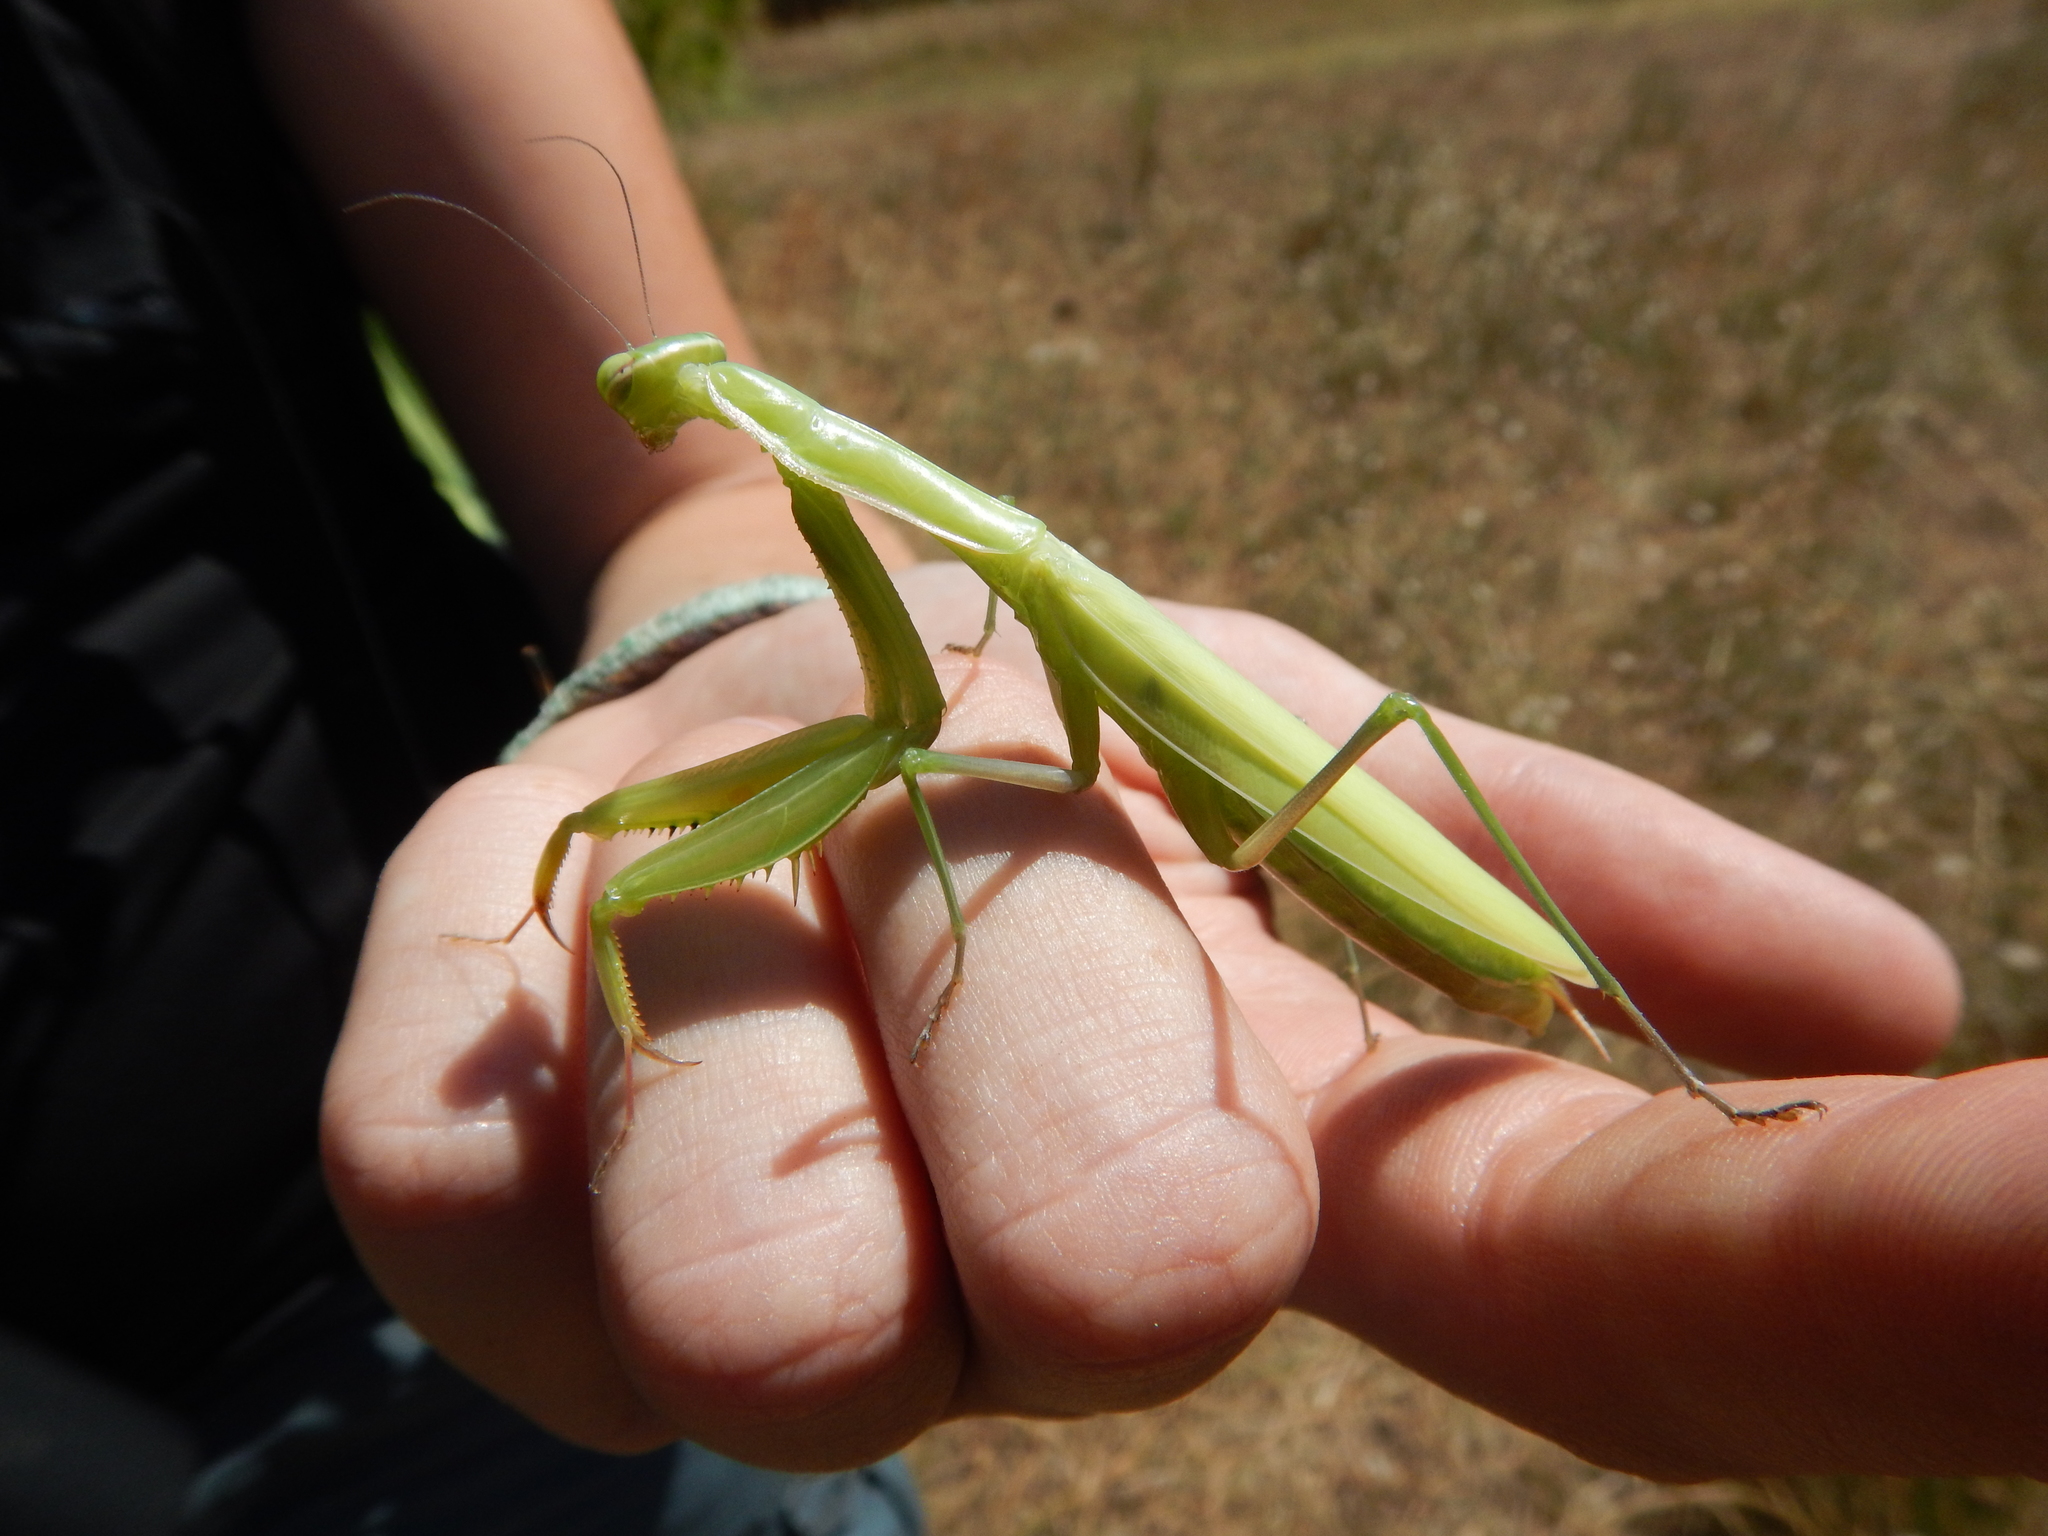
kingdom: Animalia
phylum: Arthropoda
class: Insecta
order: Mantodea
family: Mantidae
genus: Mantis
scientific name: Mantis religiosa
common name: Praying mantis
